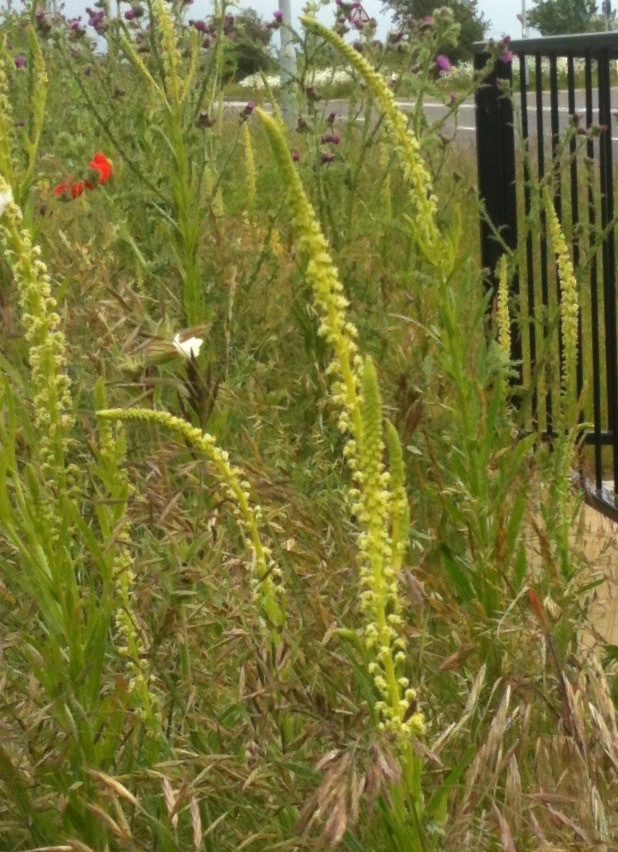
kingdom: Plantae
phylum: Tracheophyta
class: Magnoliopsida
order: Brassicales
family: Resedaceae
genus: Reseda
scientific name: Reseda luteola
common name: Weld
